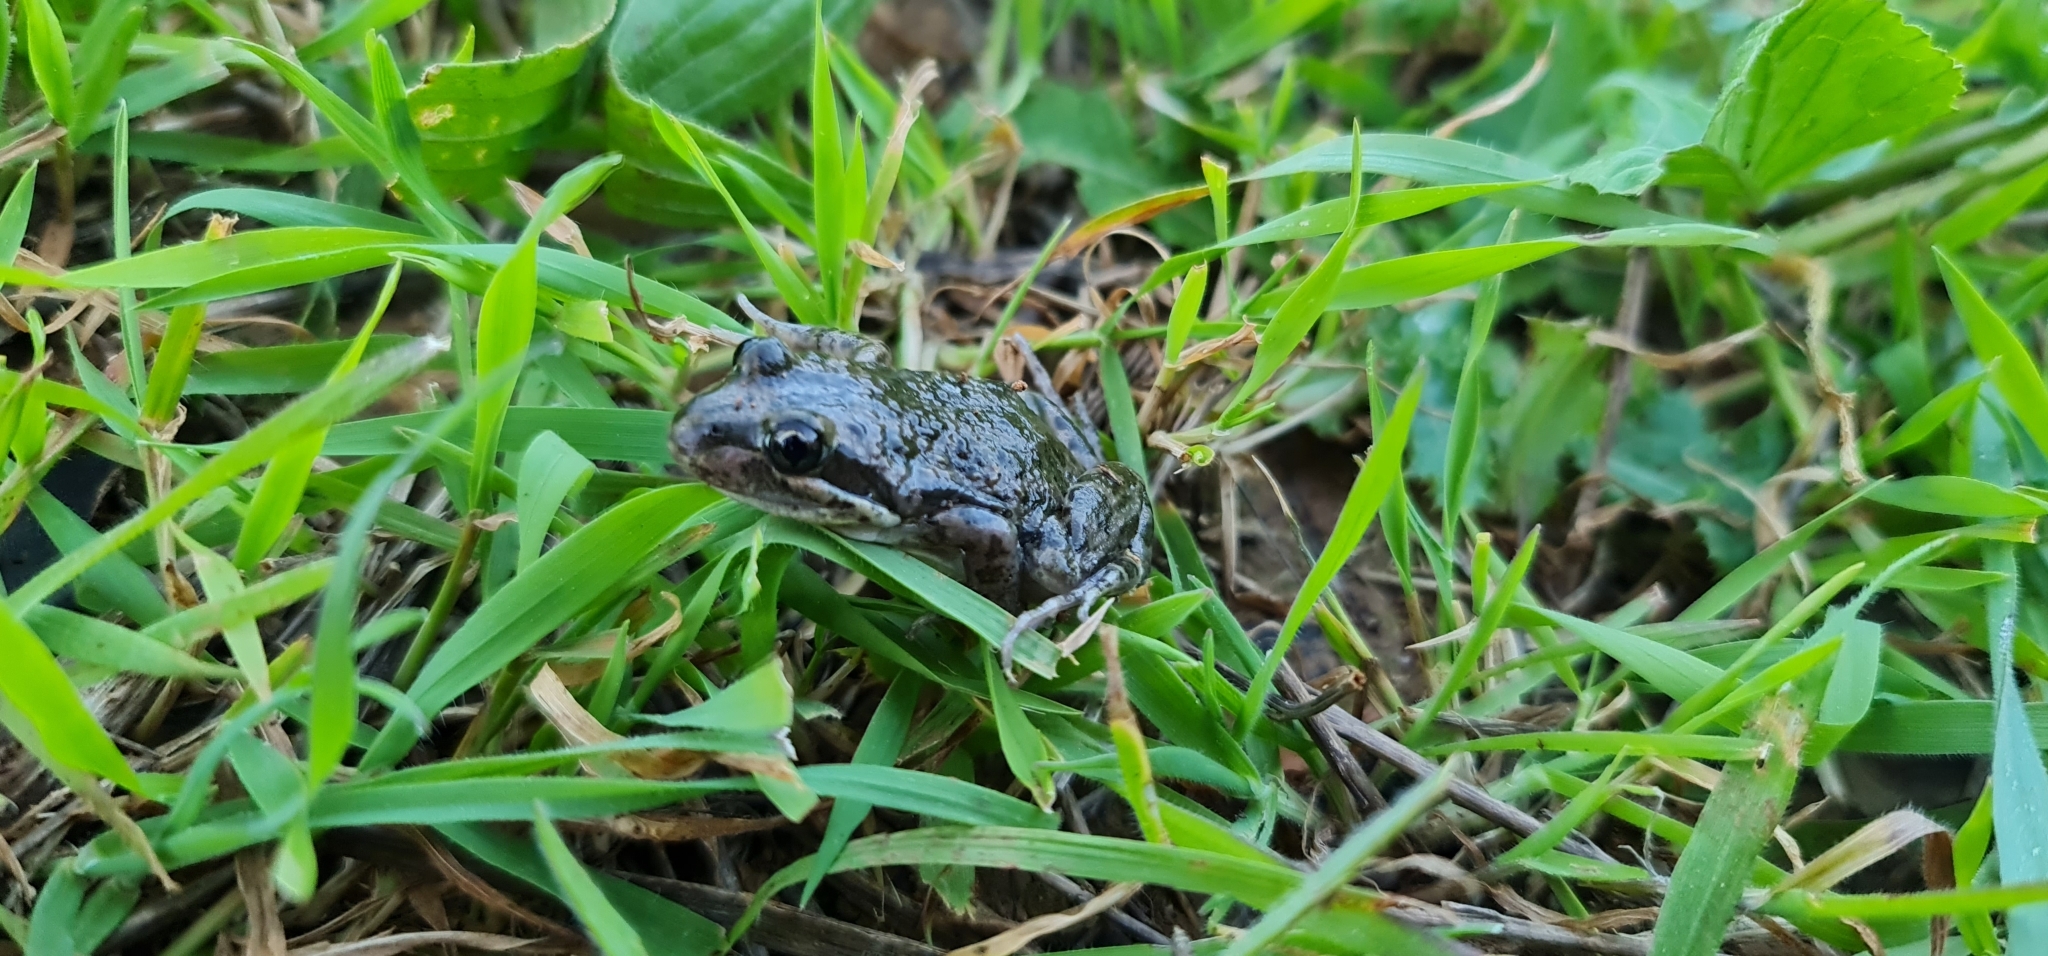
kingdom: Animalia
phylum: Chordata
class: Amphibia
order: Anura
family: Limnodynastidae
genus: Limnodynastes
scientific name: Limnodynastes tasmaniensis
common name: Spotted marsh frog
